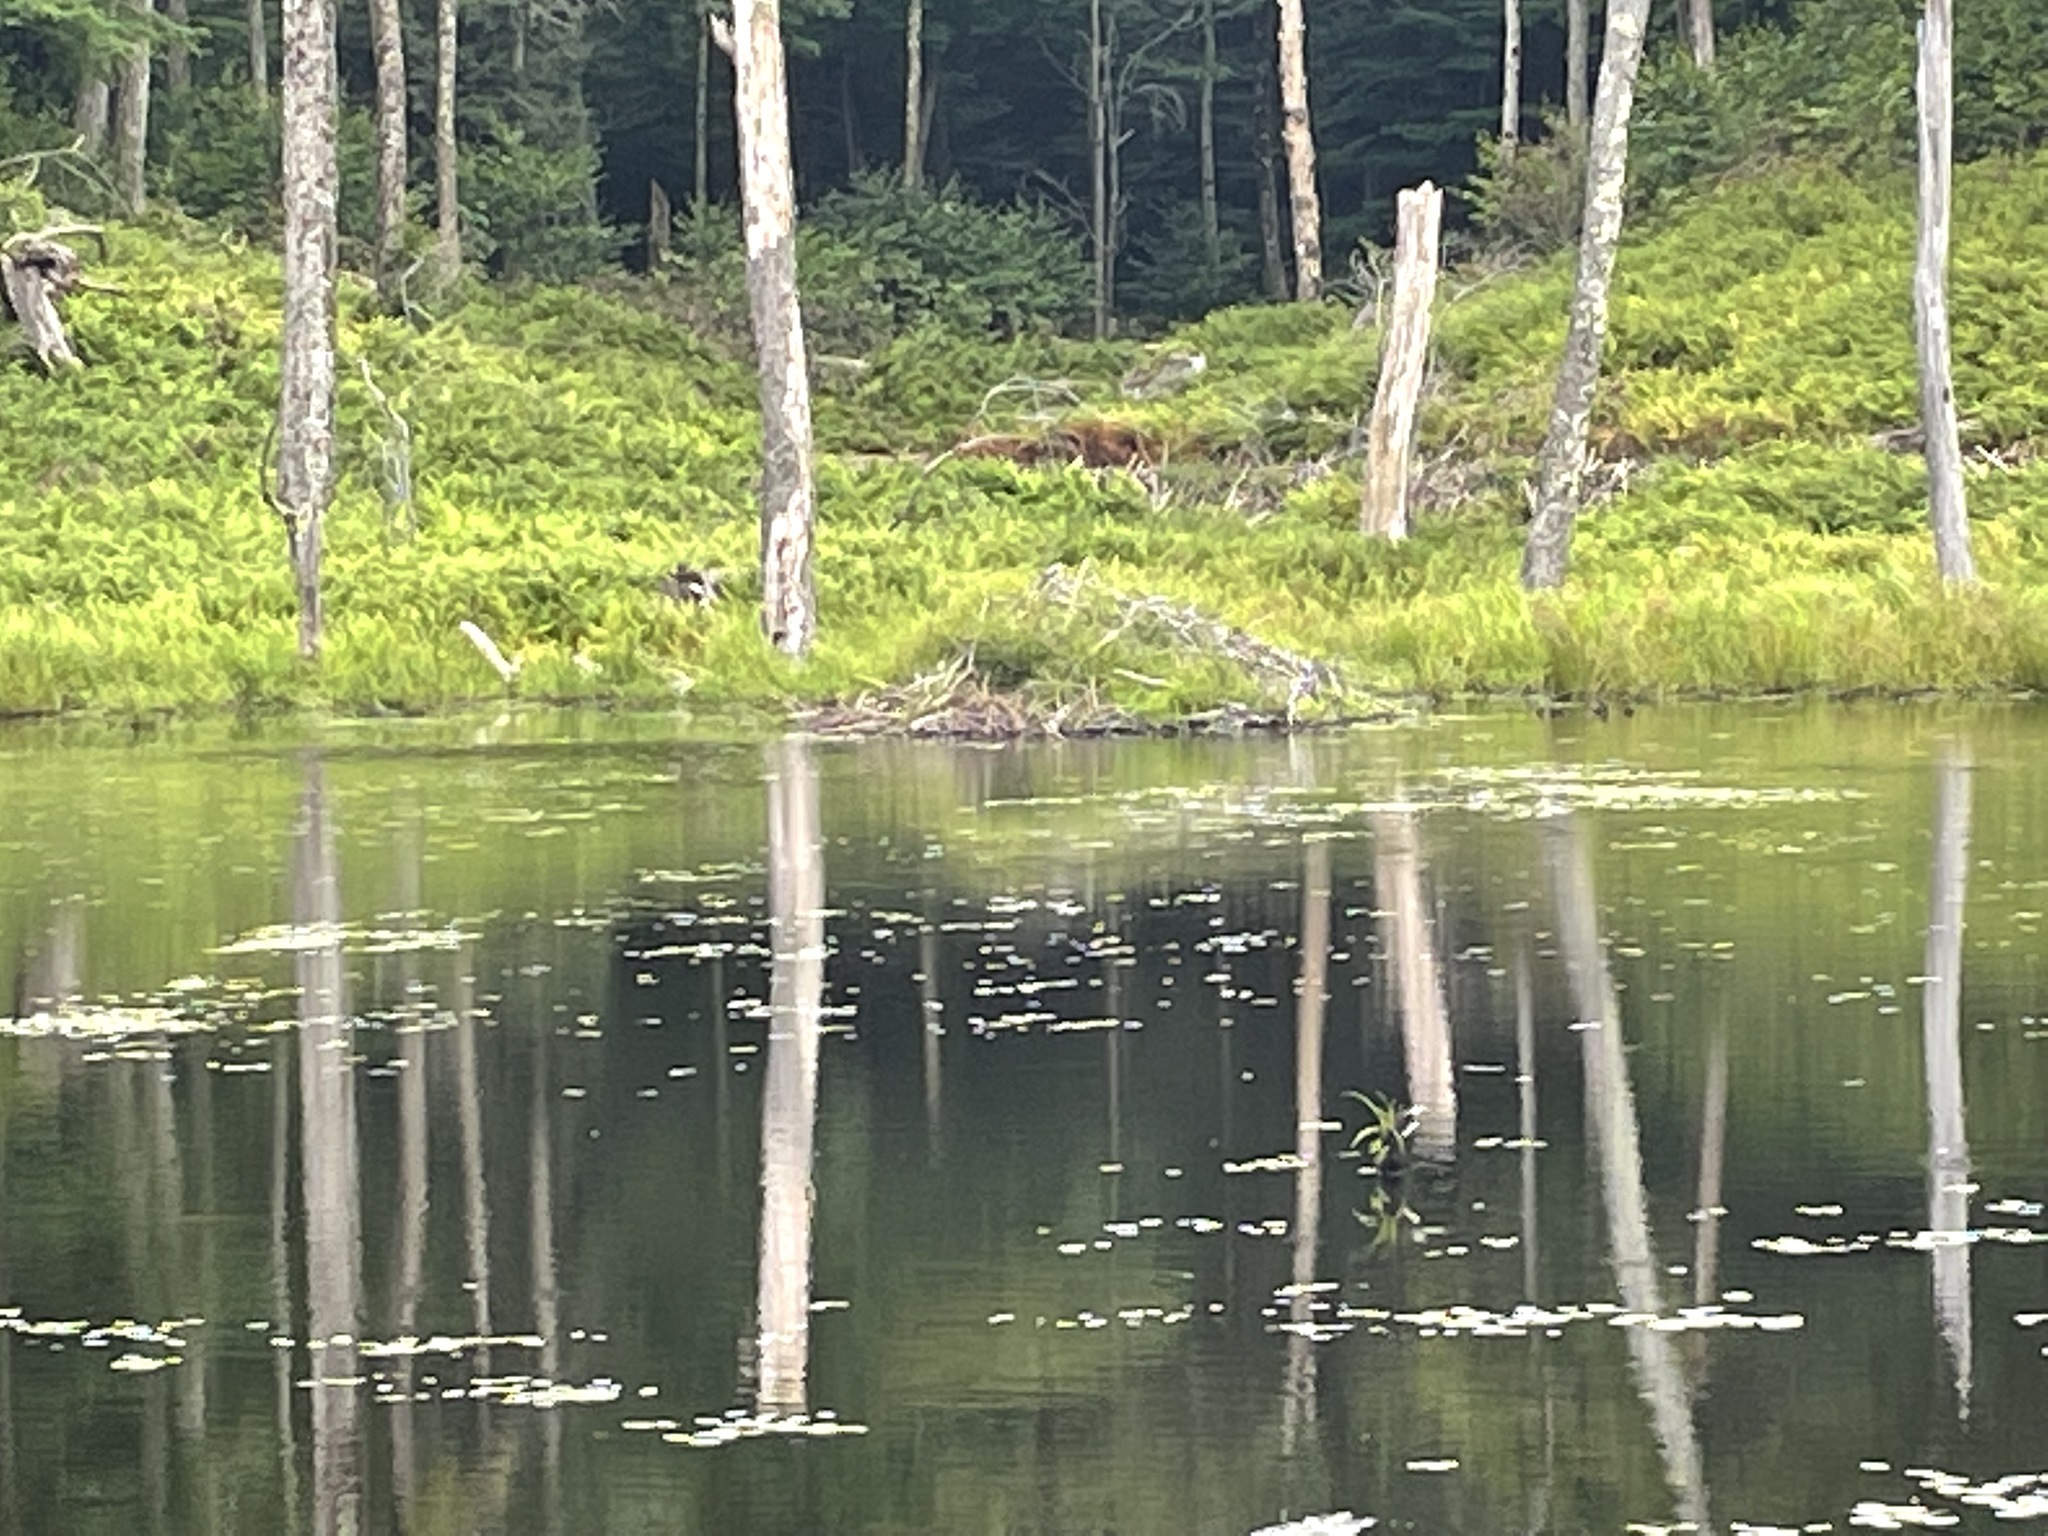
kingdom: Animalia
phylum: Chordata
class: Mammalia
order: Rodentia
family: Castoridae
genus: Castor
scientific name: Castor canadensis
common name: American beaver
